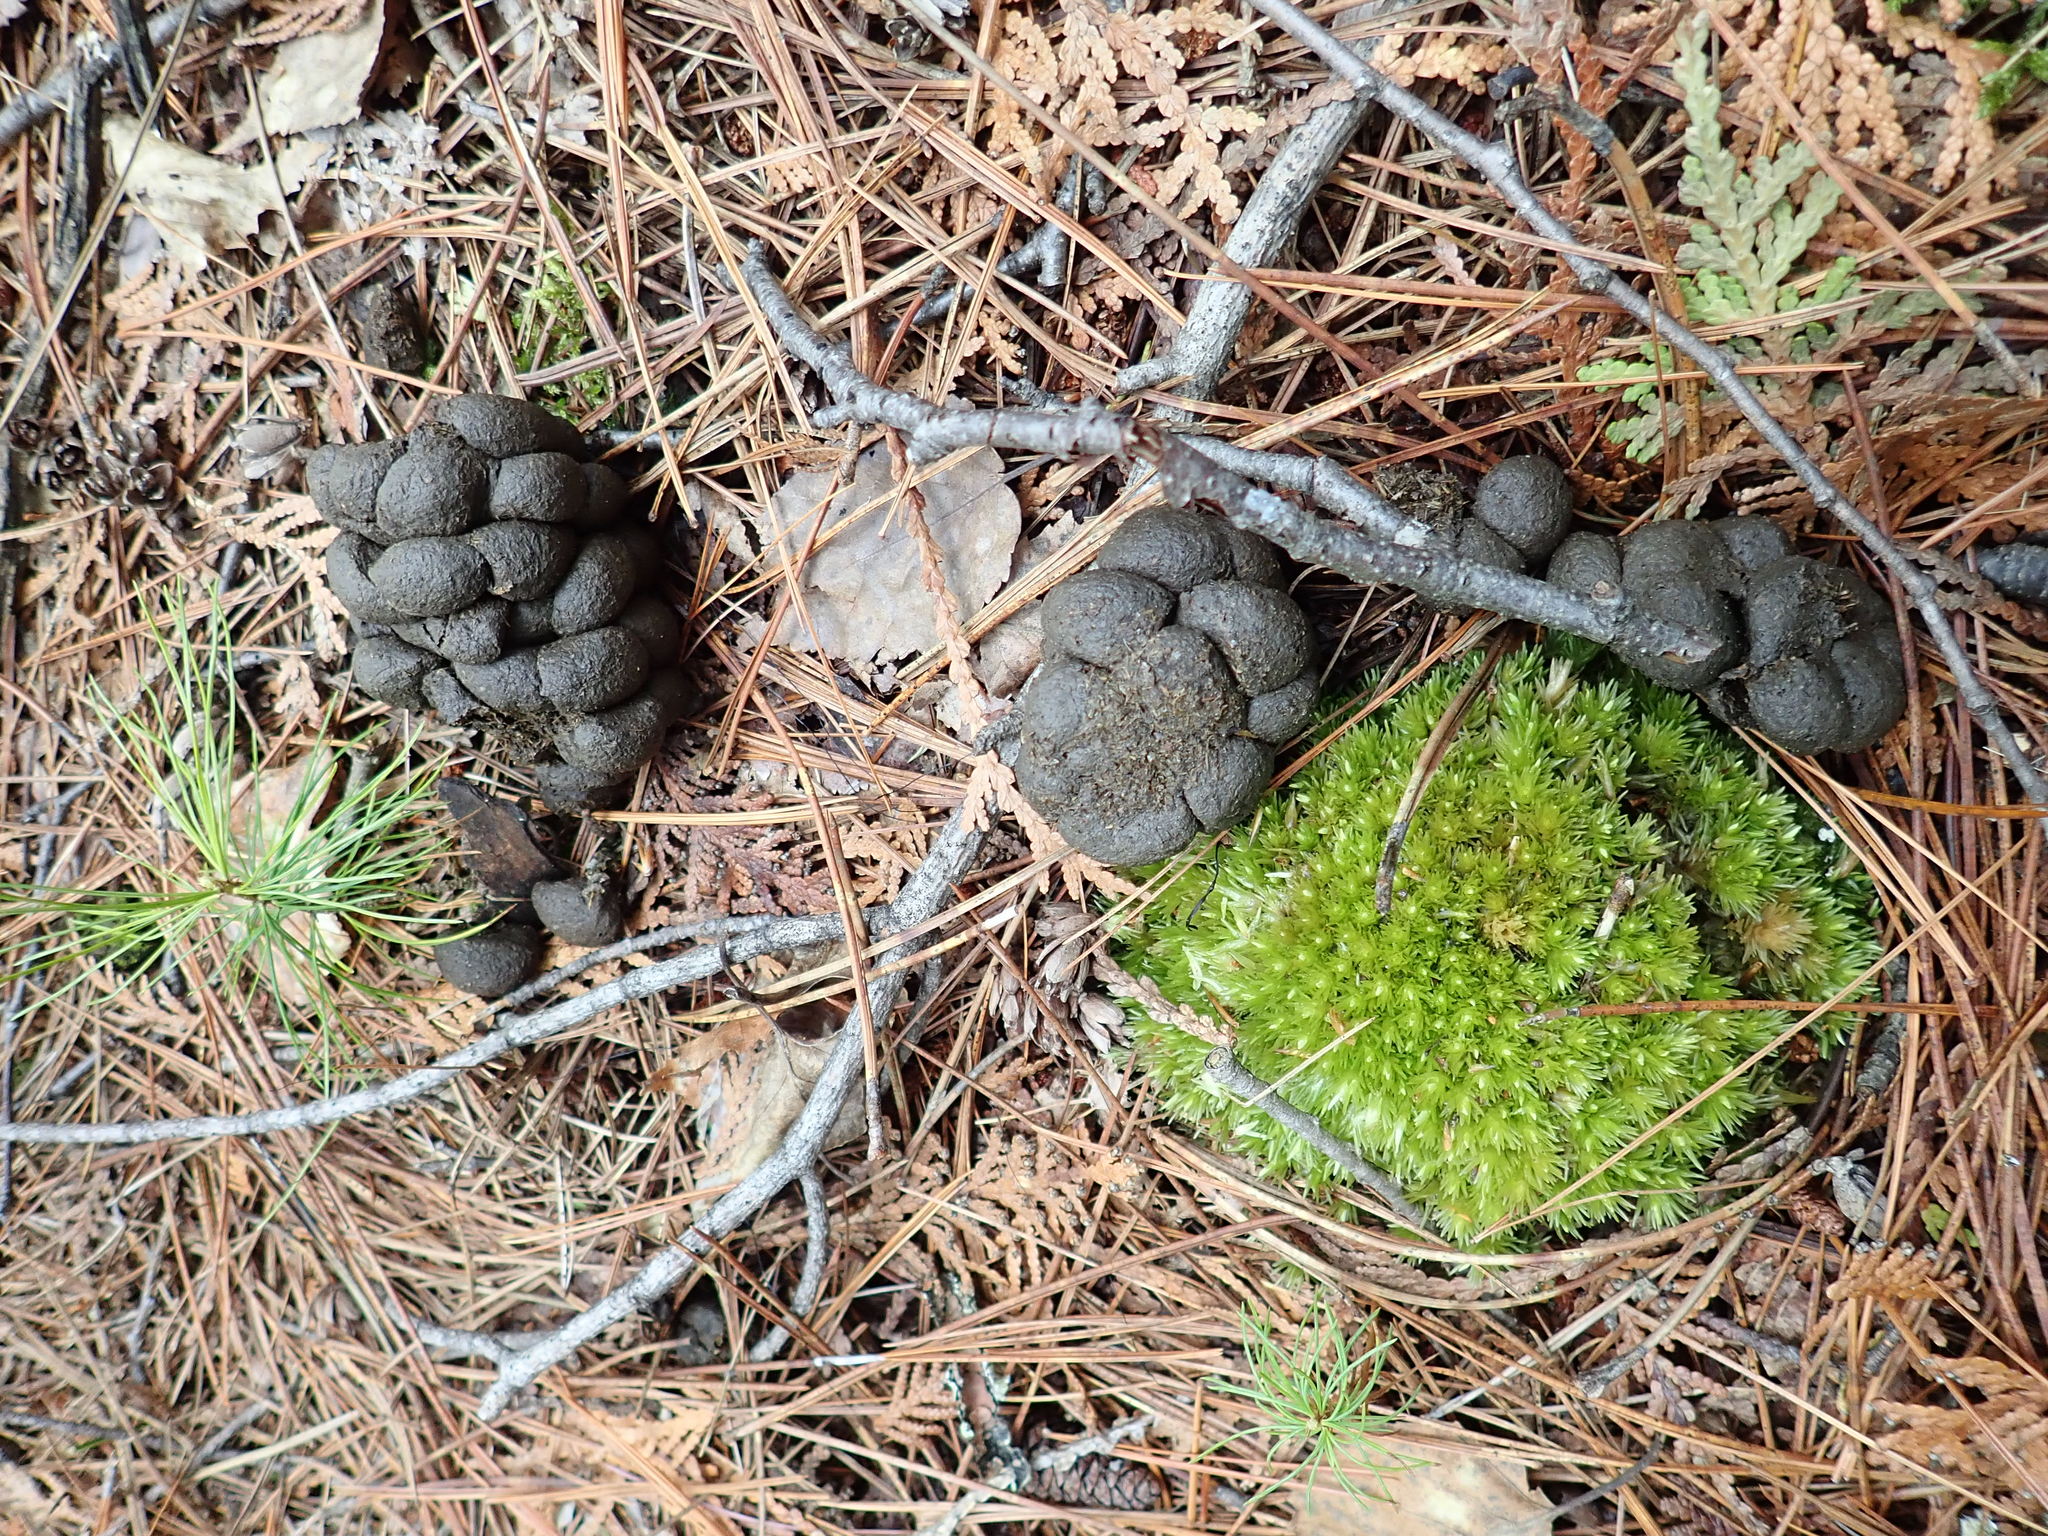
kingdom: Animalia
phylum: Chordata
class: Mammalia
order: Artiodactyla
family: Cervidae
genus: Odocoileus
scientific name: Odocoileus virginianus
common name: White-tailed deer
